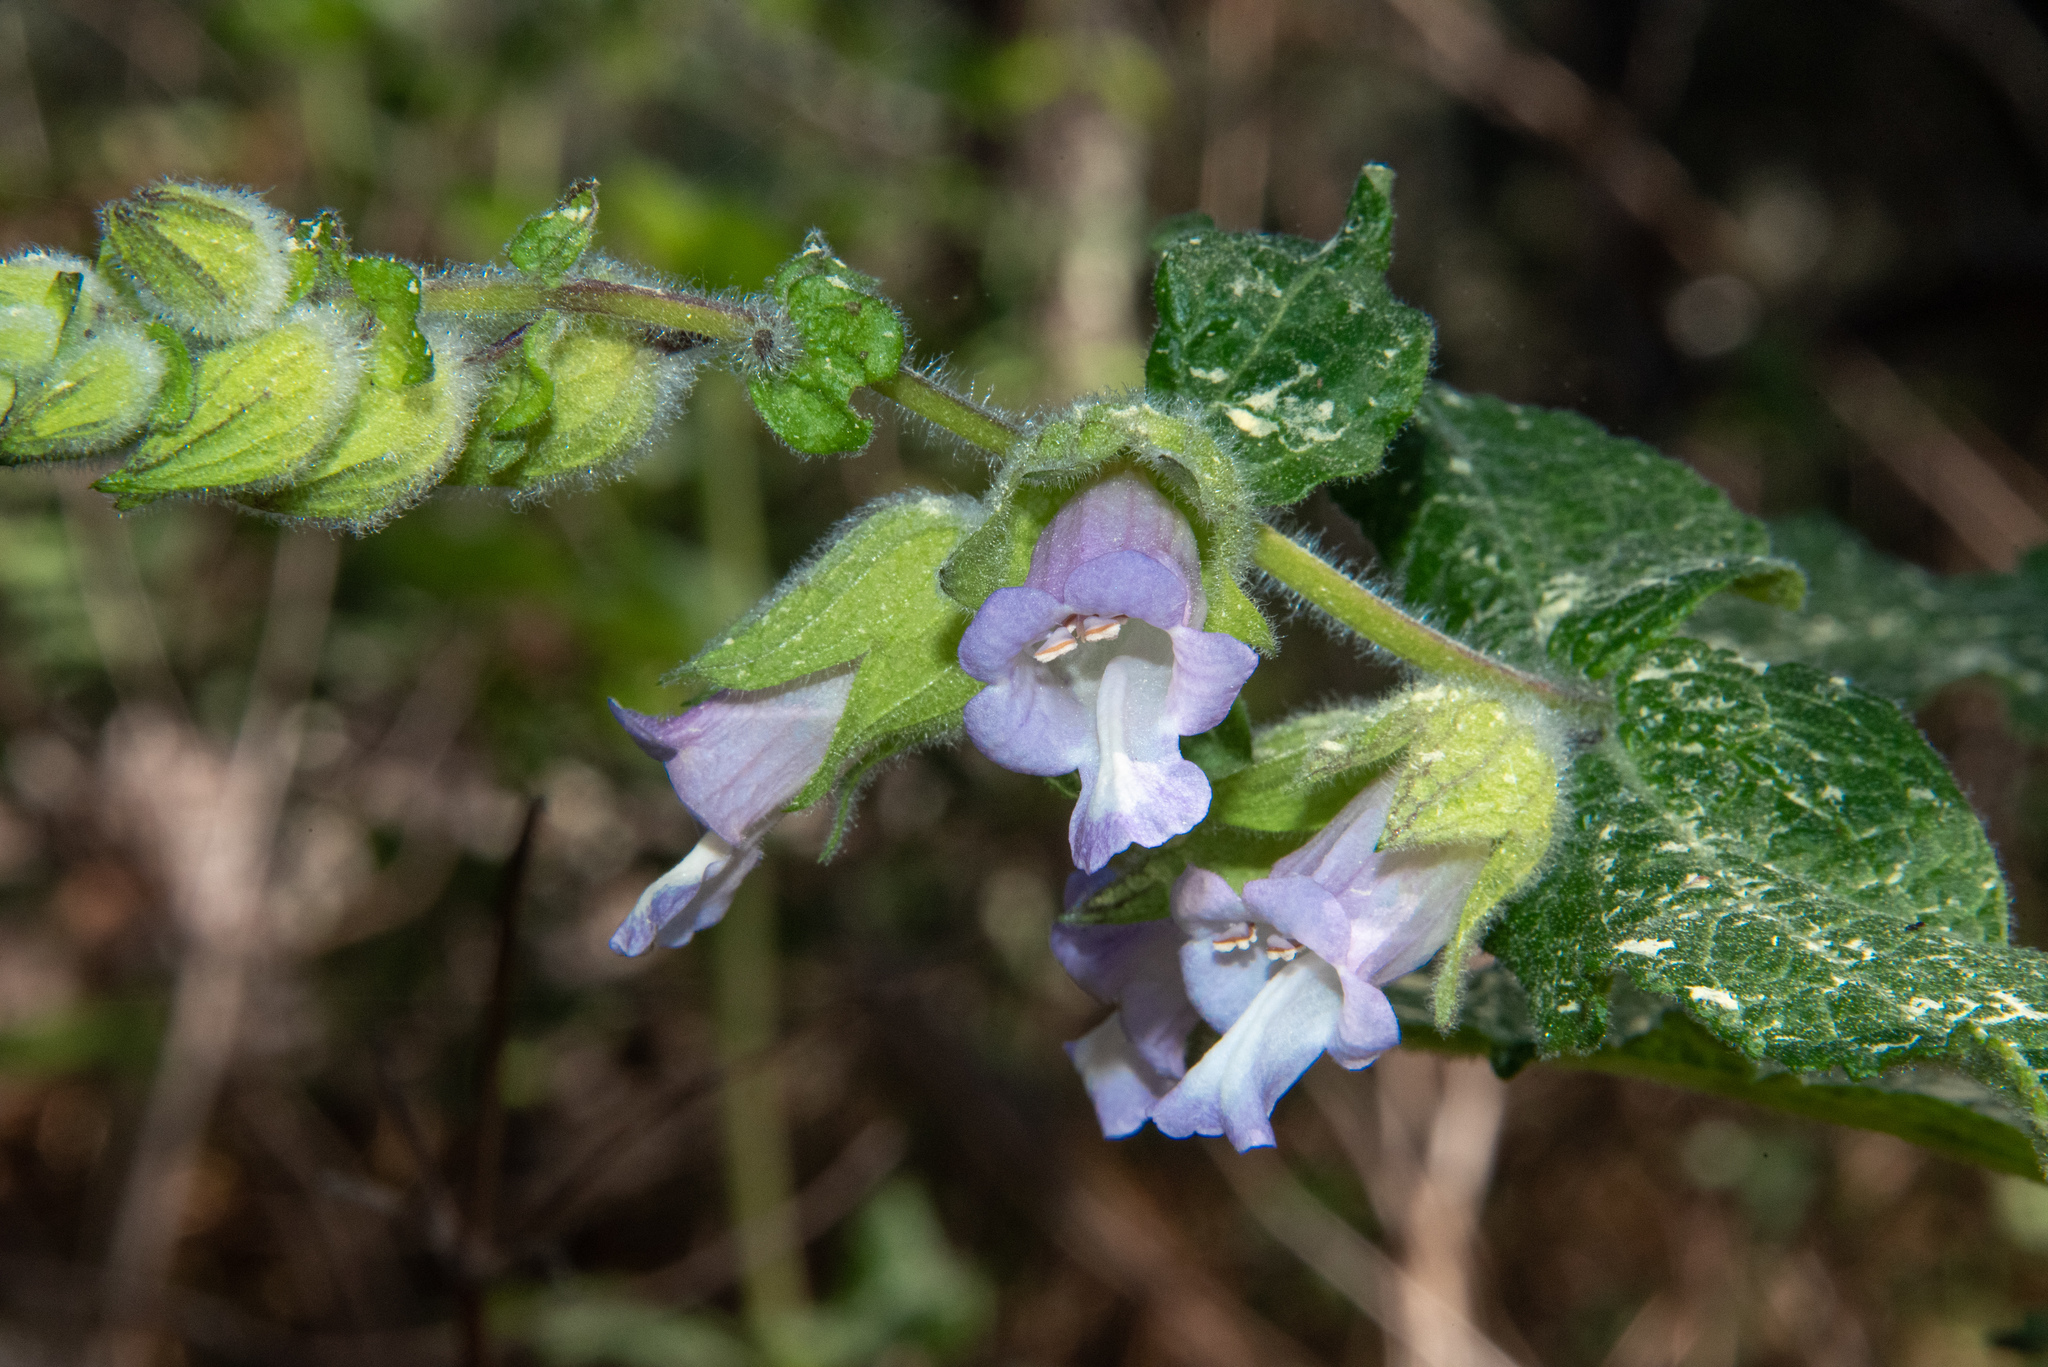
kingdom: Plantae
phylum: Tracheophyta
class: Magnoliopsida
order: Lamiales
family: Lamiaceae
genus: Lepechinia
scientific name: Lepechinia calycina
